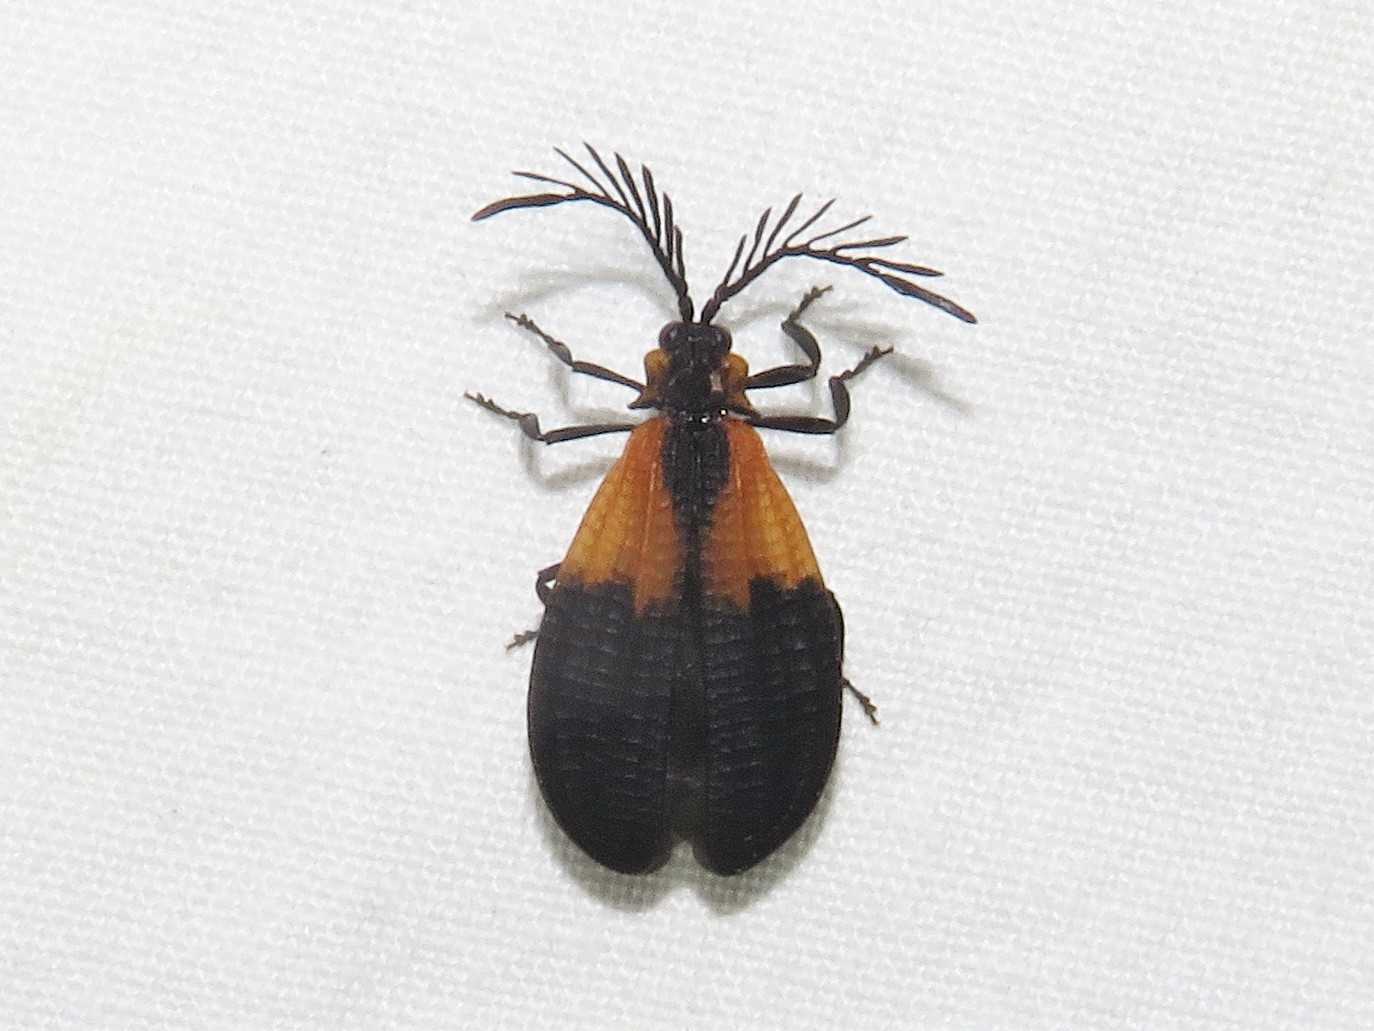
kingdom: Animalia
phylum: Arthropoda
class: Insecta
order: Coleoptera
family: Lycidae
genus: Caenia
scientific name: Caenia dimidiata
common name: Terminal net-winged beetle
